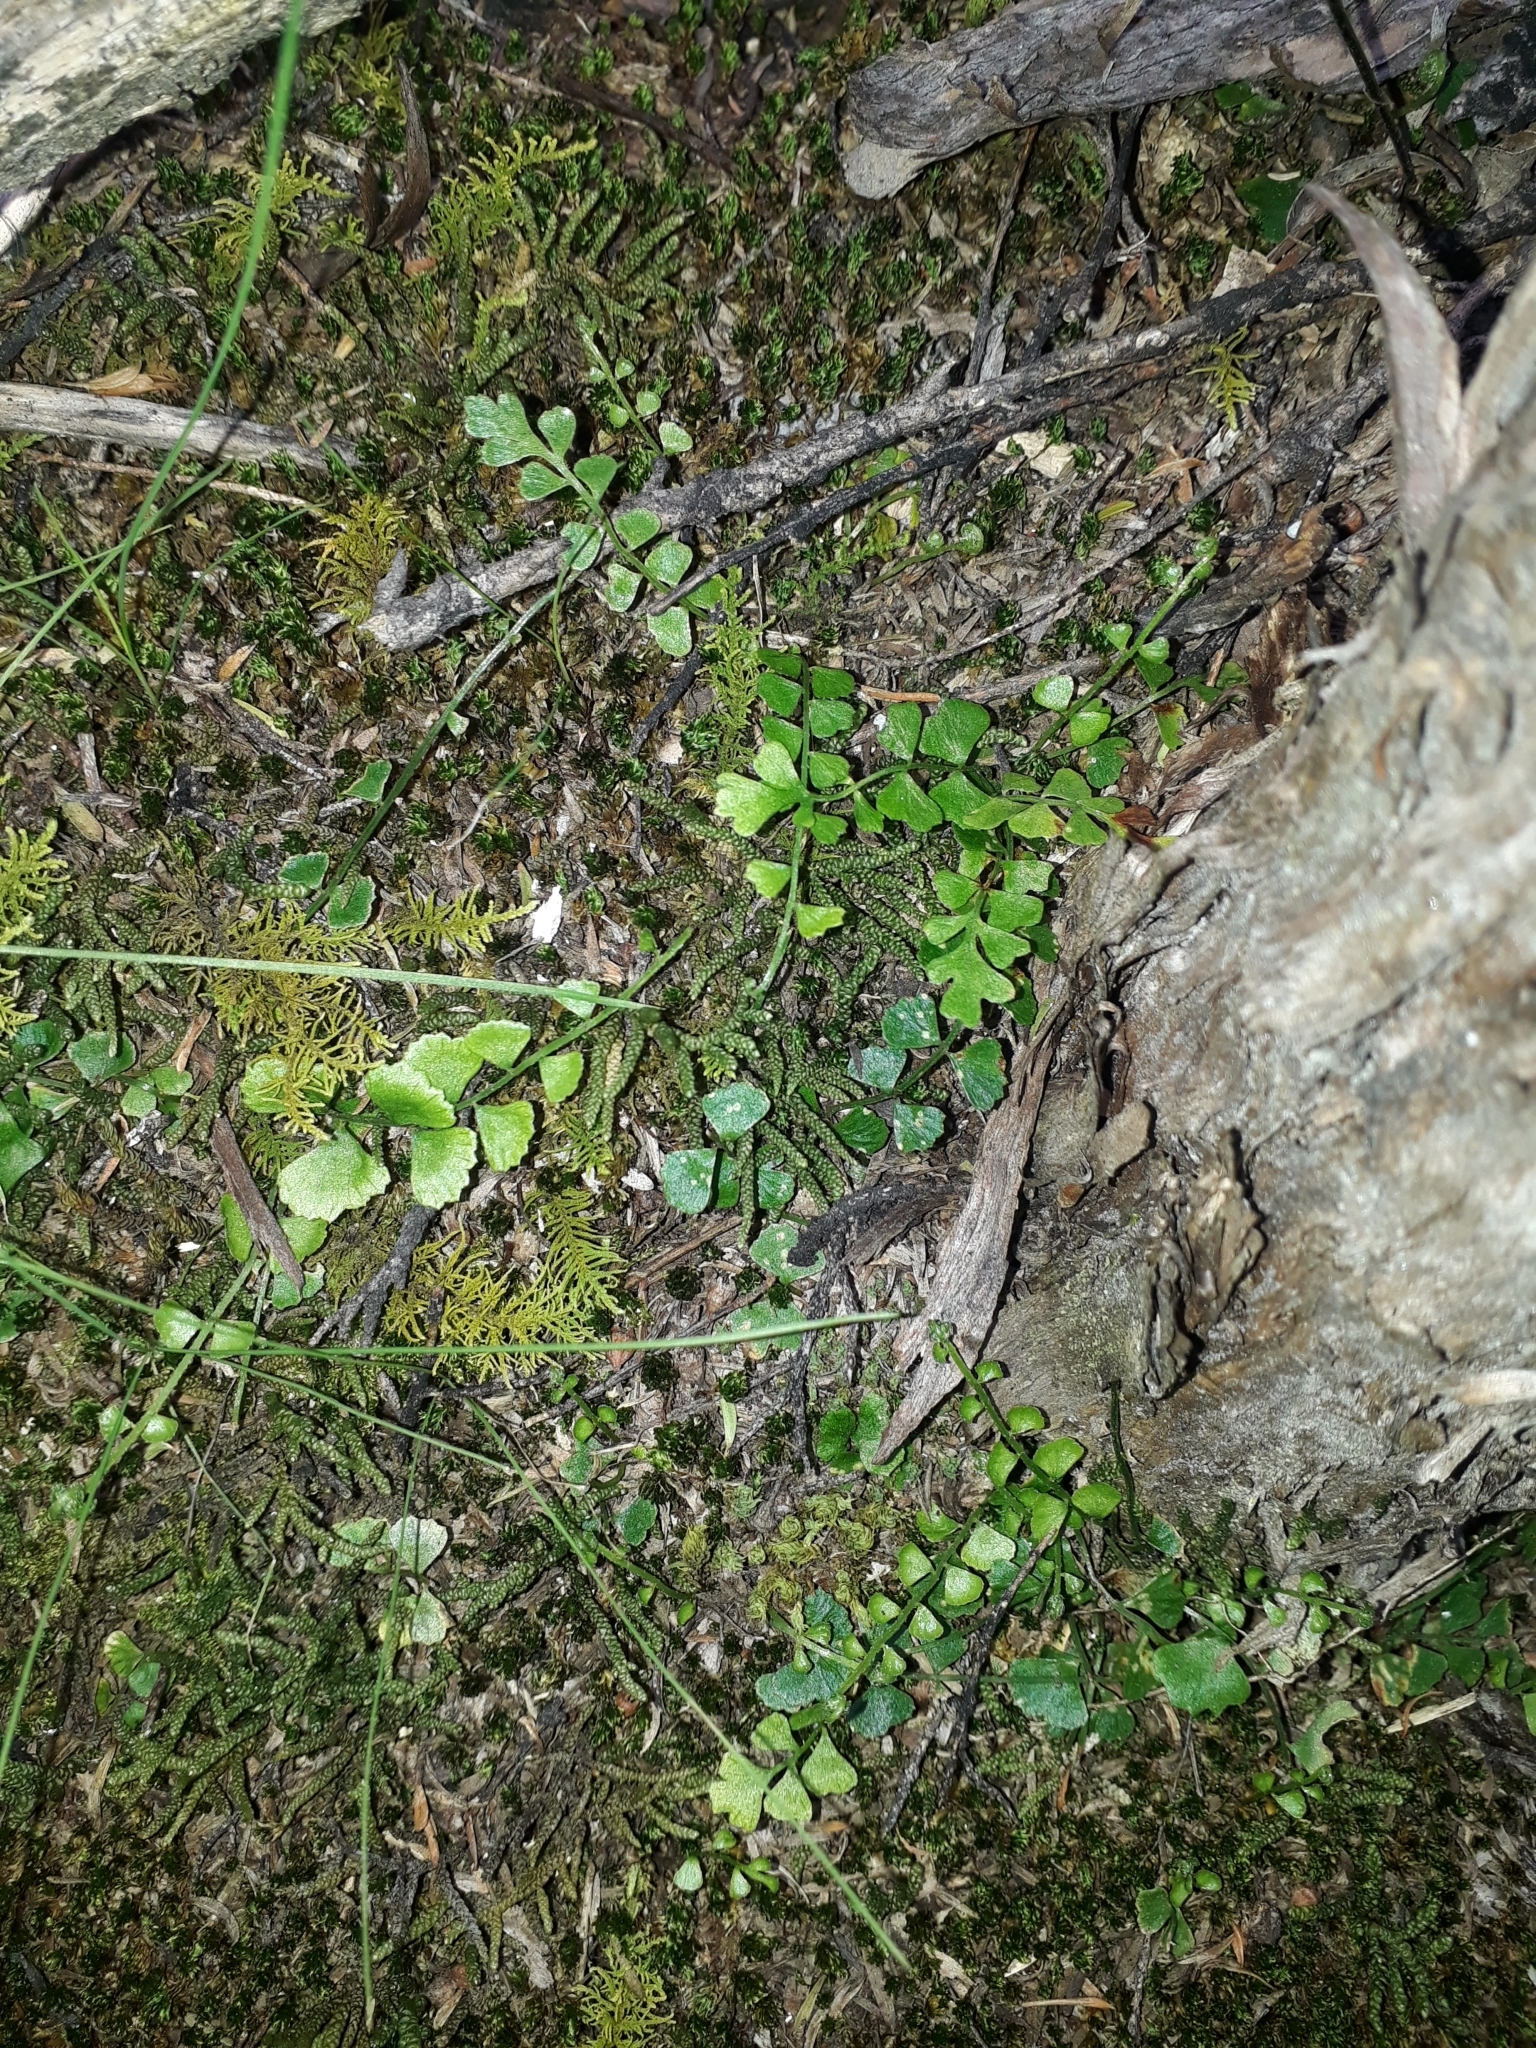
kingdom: Plantae
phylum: Tracheophyta
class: Polypodiopsida
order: Polypodiales
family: Aspleniaceae
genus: Asplenium
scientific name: Asplenium flabellifolium
